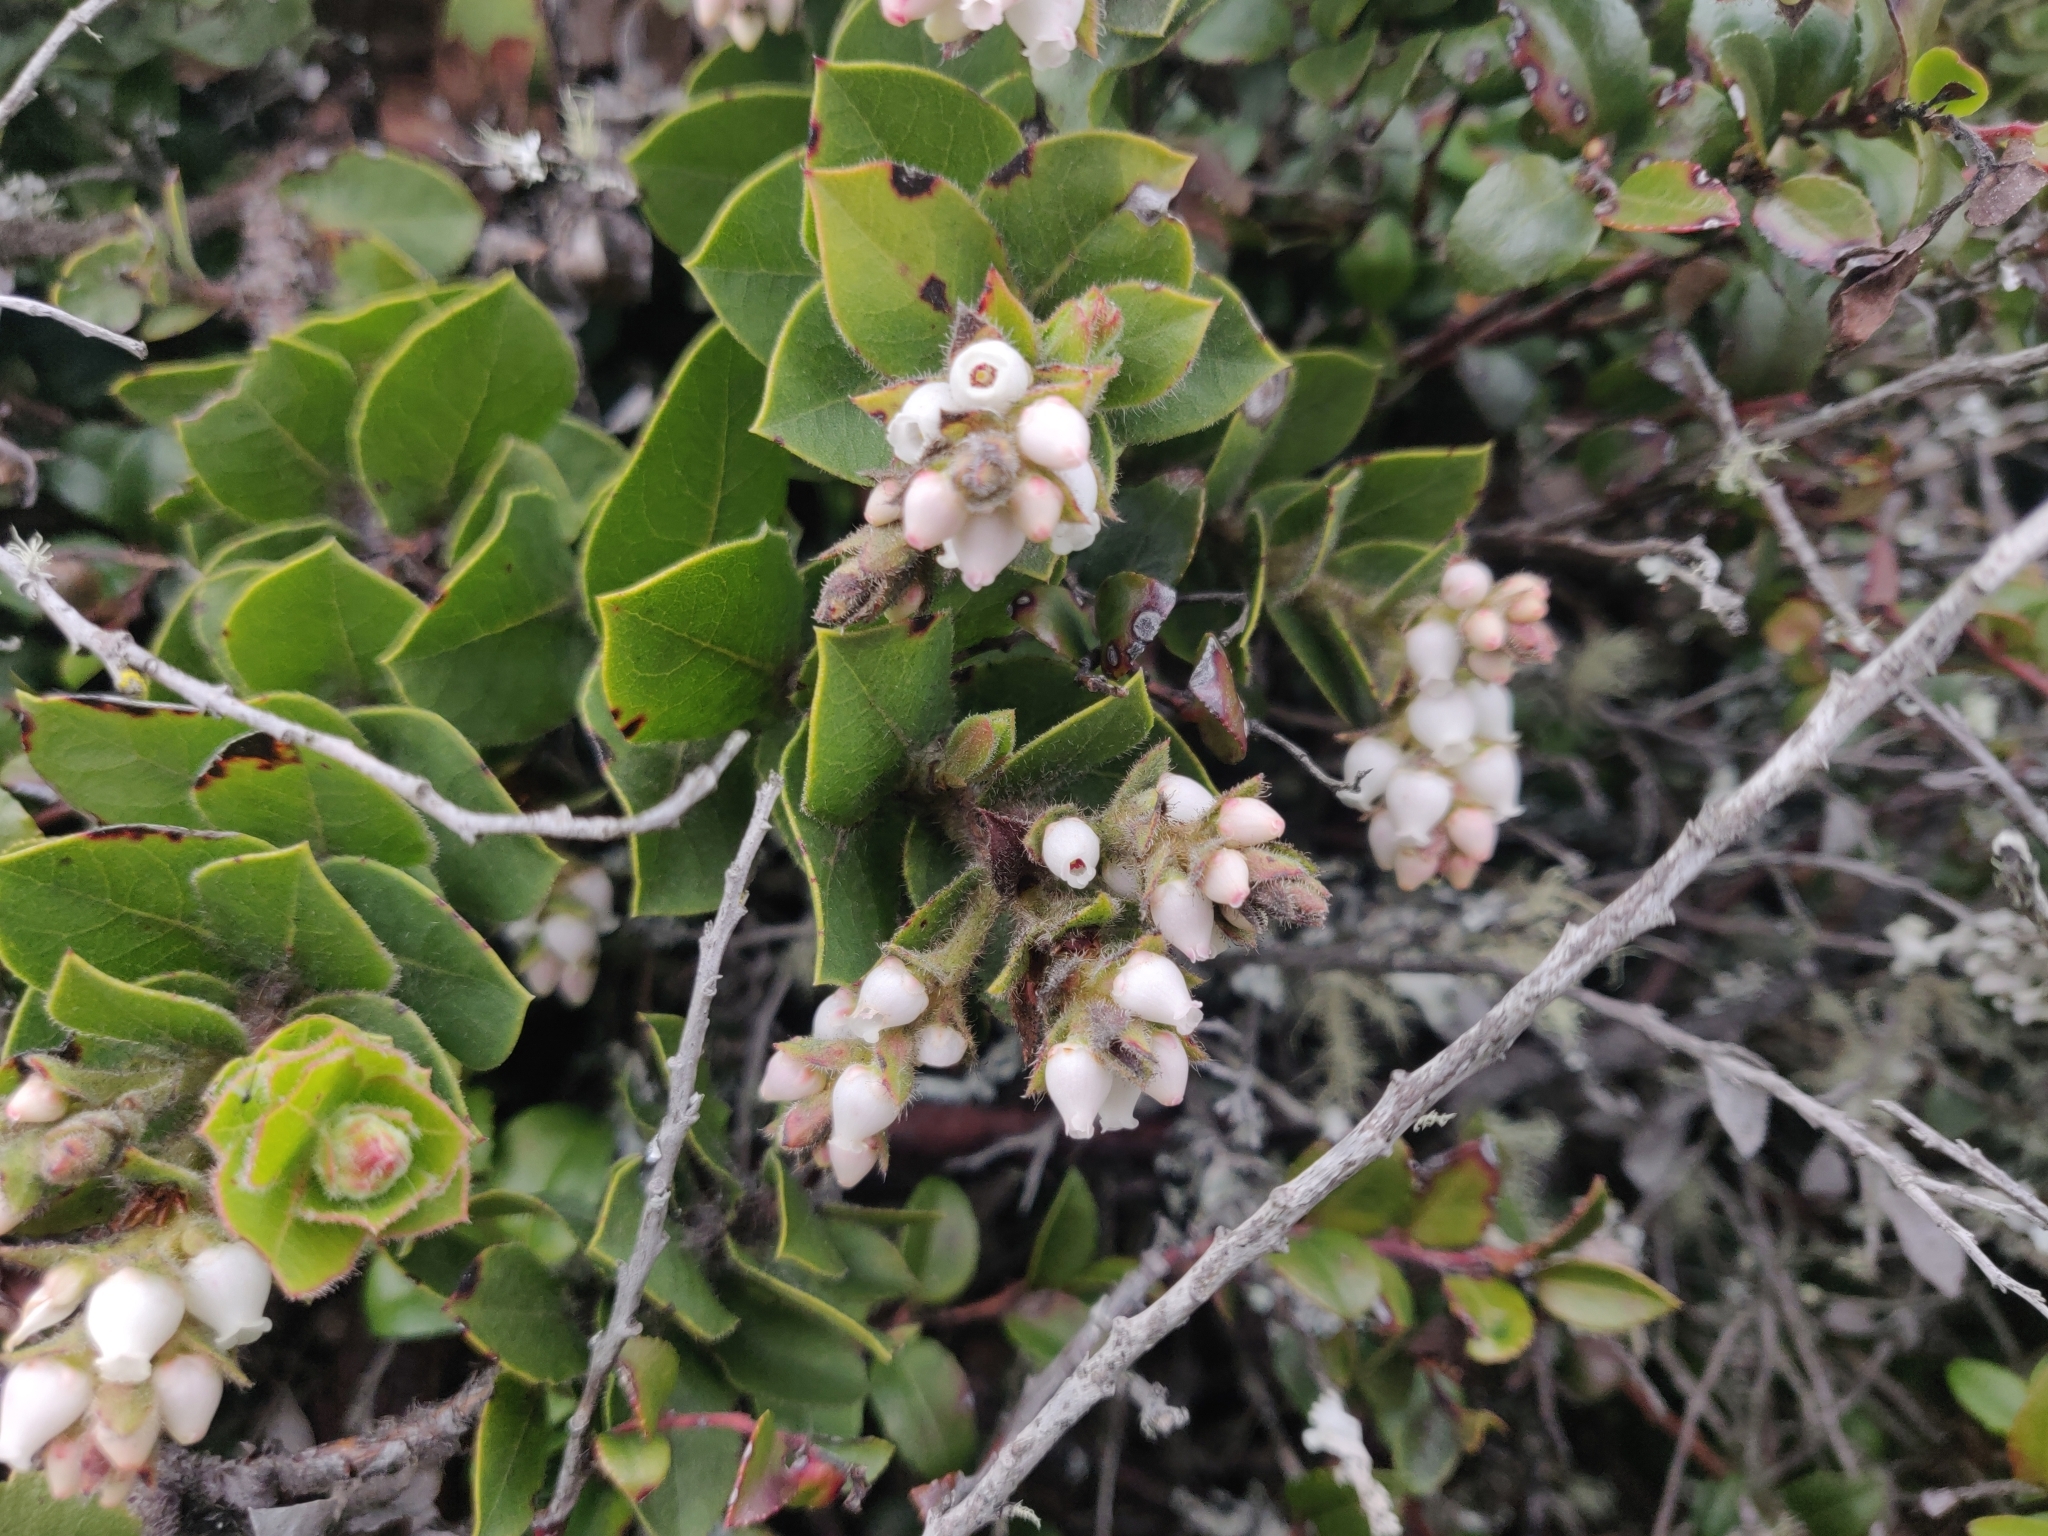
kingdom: Plantae
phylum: Tracheophyta
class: Magnoliopsida
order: Ericales
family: Ericaceae
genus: Arctostaphylos
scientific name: Arctostaphylos imbricata
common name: San bruno mountain manzanita
